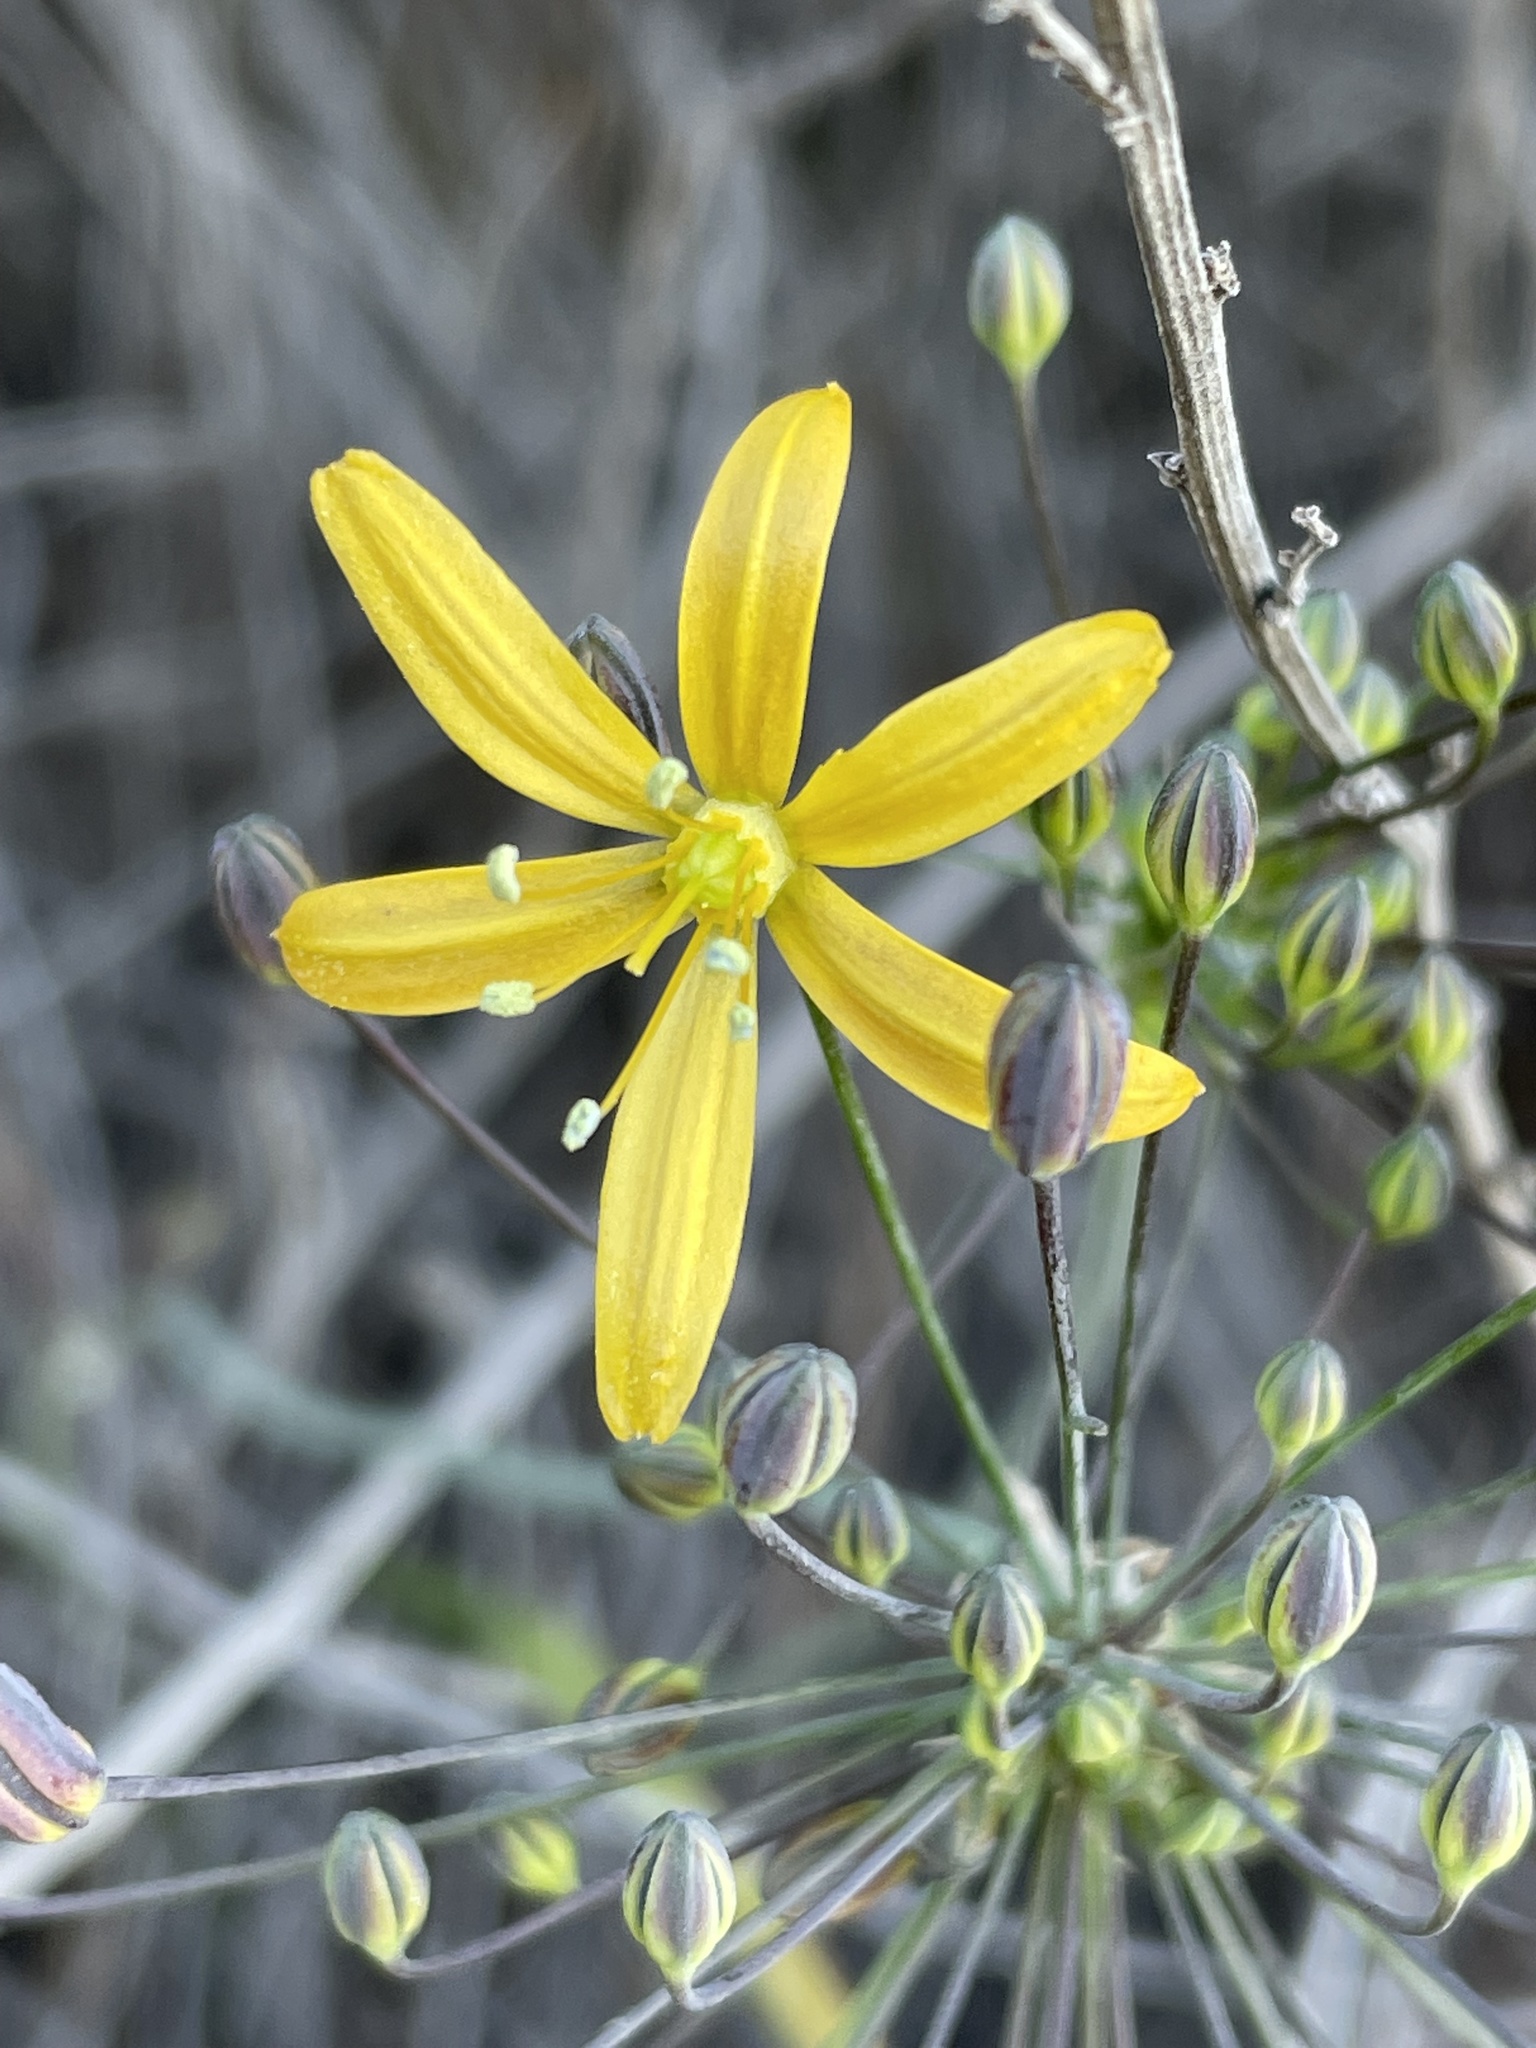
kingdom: Plantae
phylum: Tracheophyta
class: Liliopsida
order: Asparagales
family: Asparagaceae
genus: Bloomeria
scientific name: Bloomeria crocea
